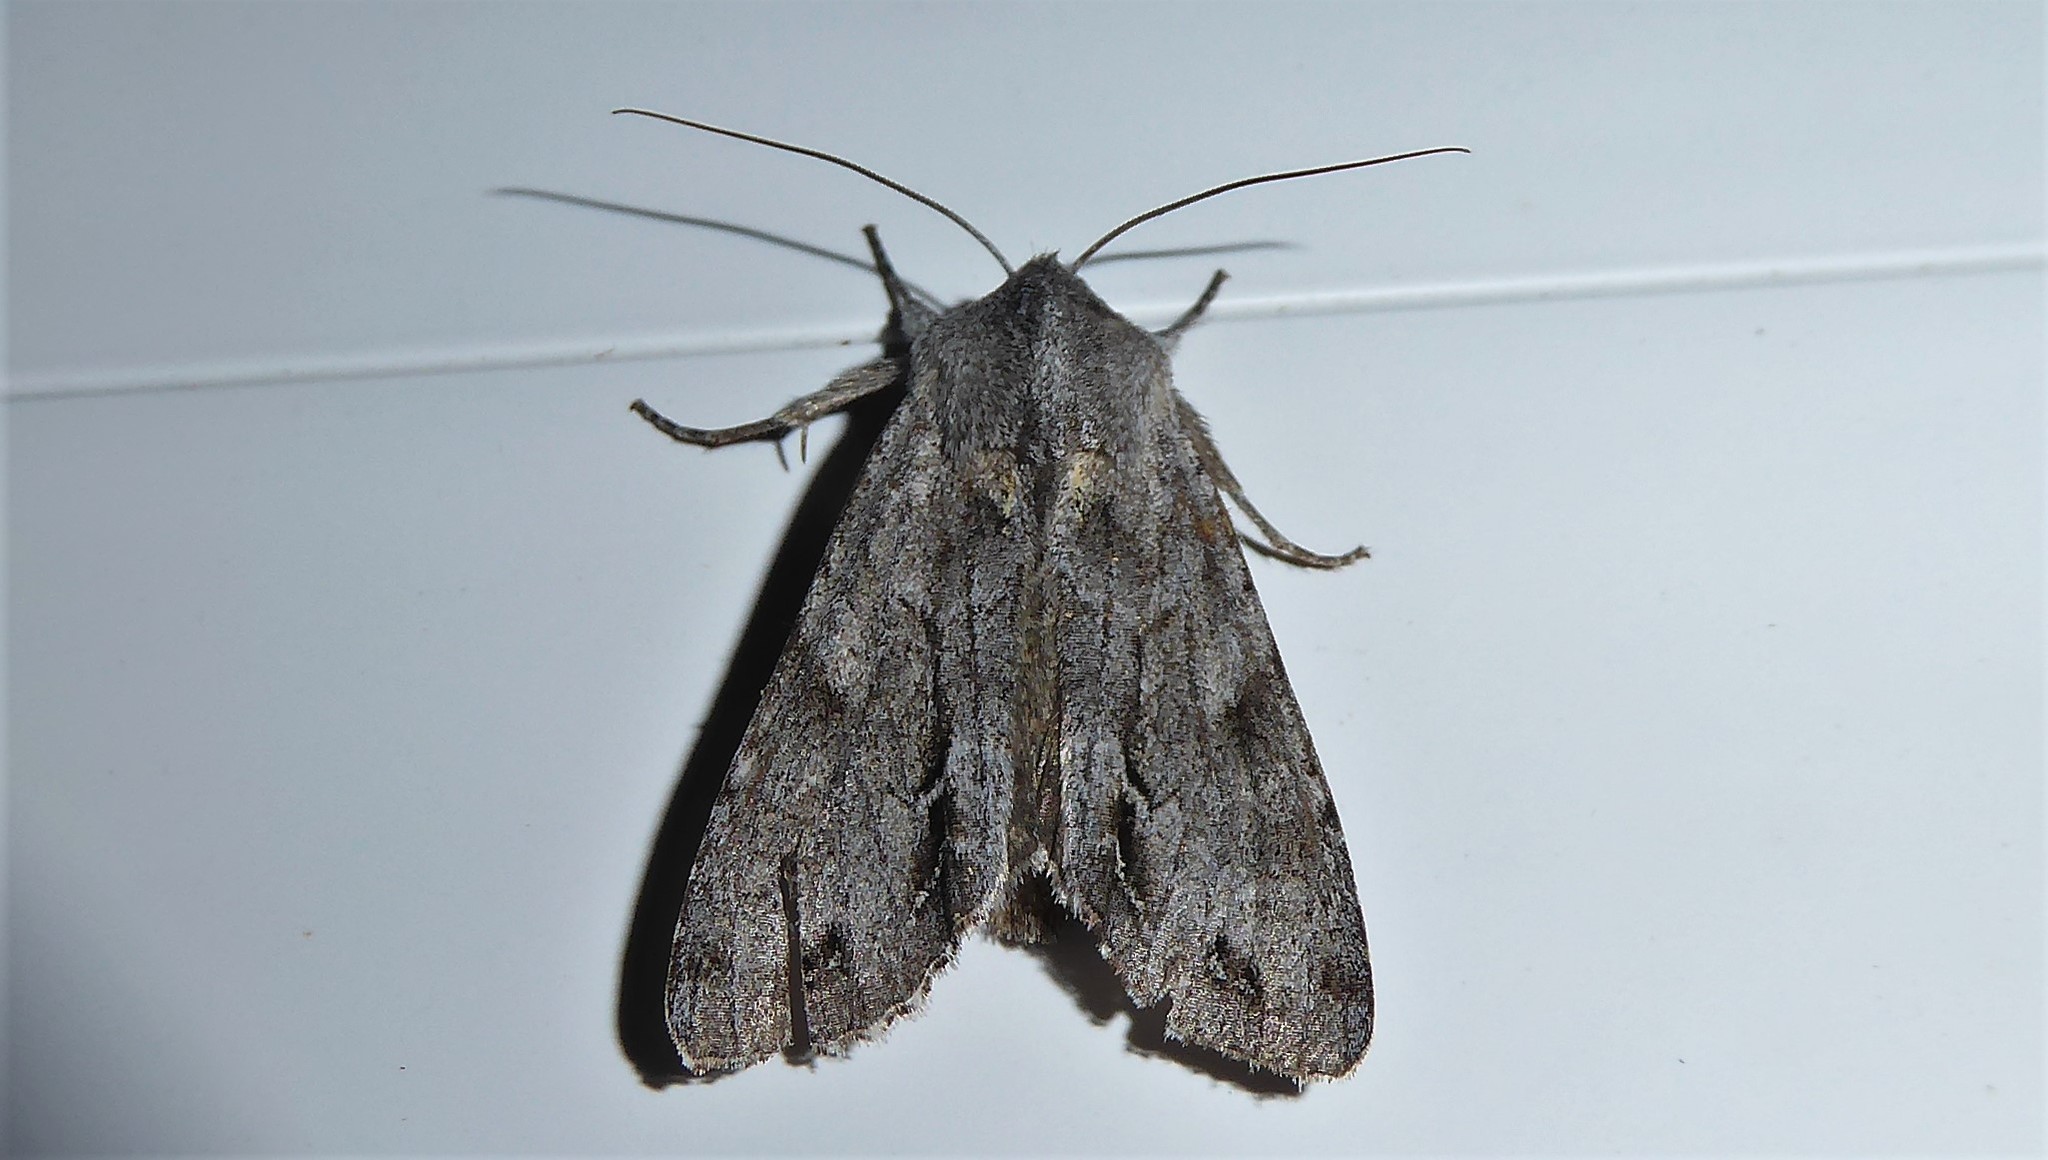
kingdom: Animalia
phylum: Arthropoda
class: Insecta
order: Lepidoptera
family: Noctuidae
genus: Ichneutica
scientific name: Ichneutica
